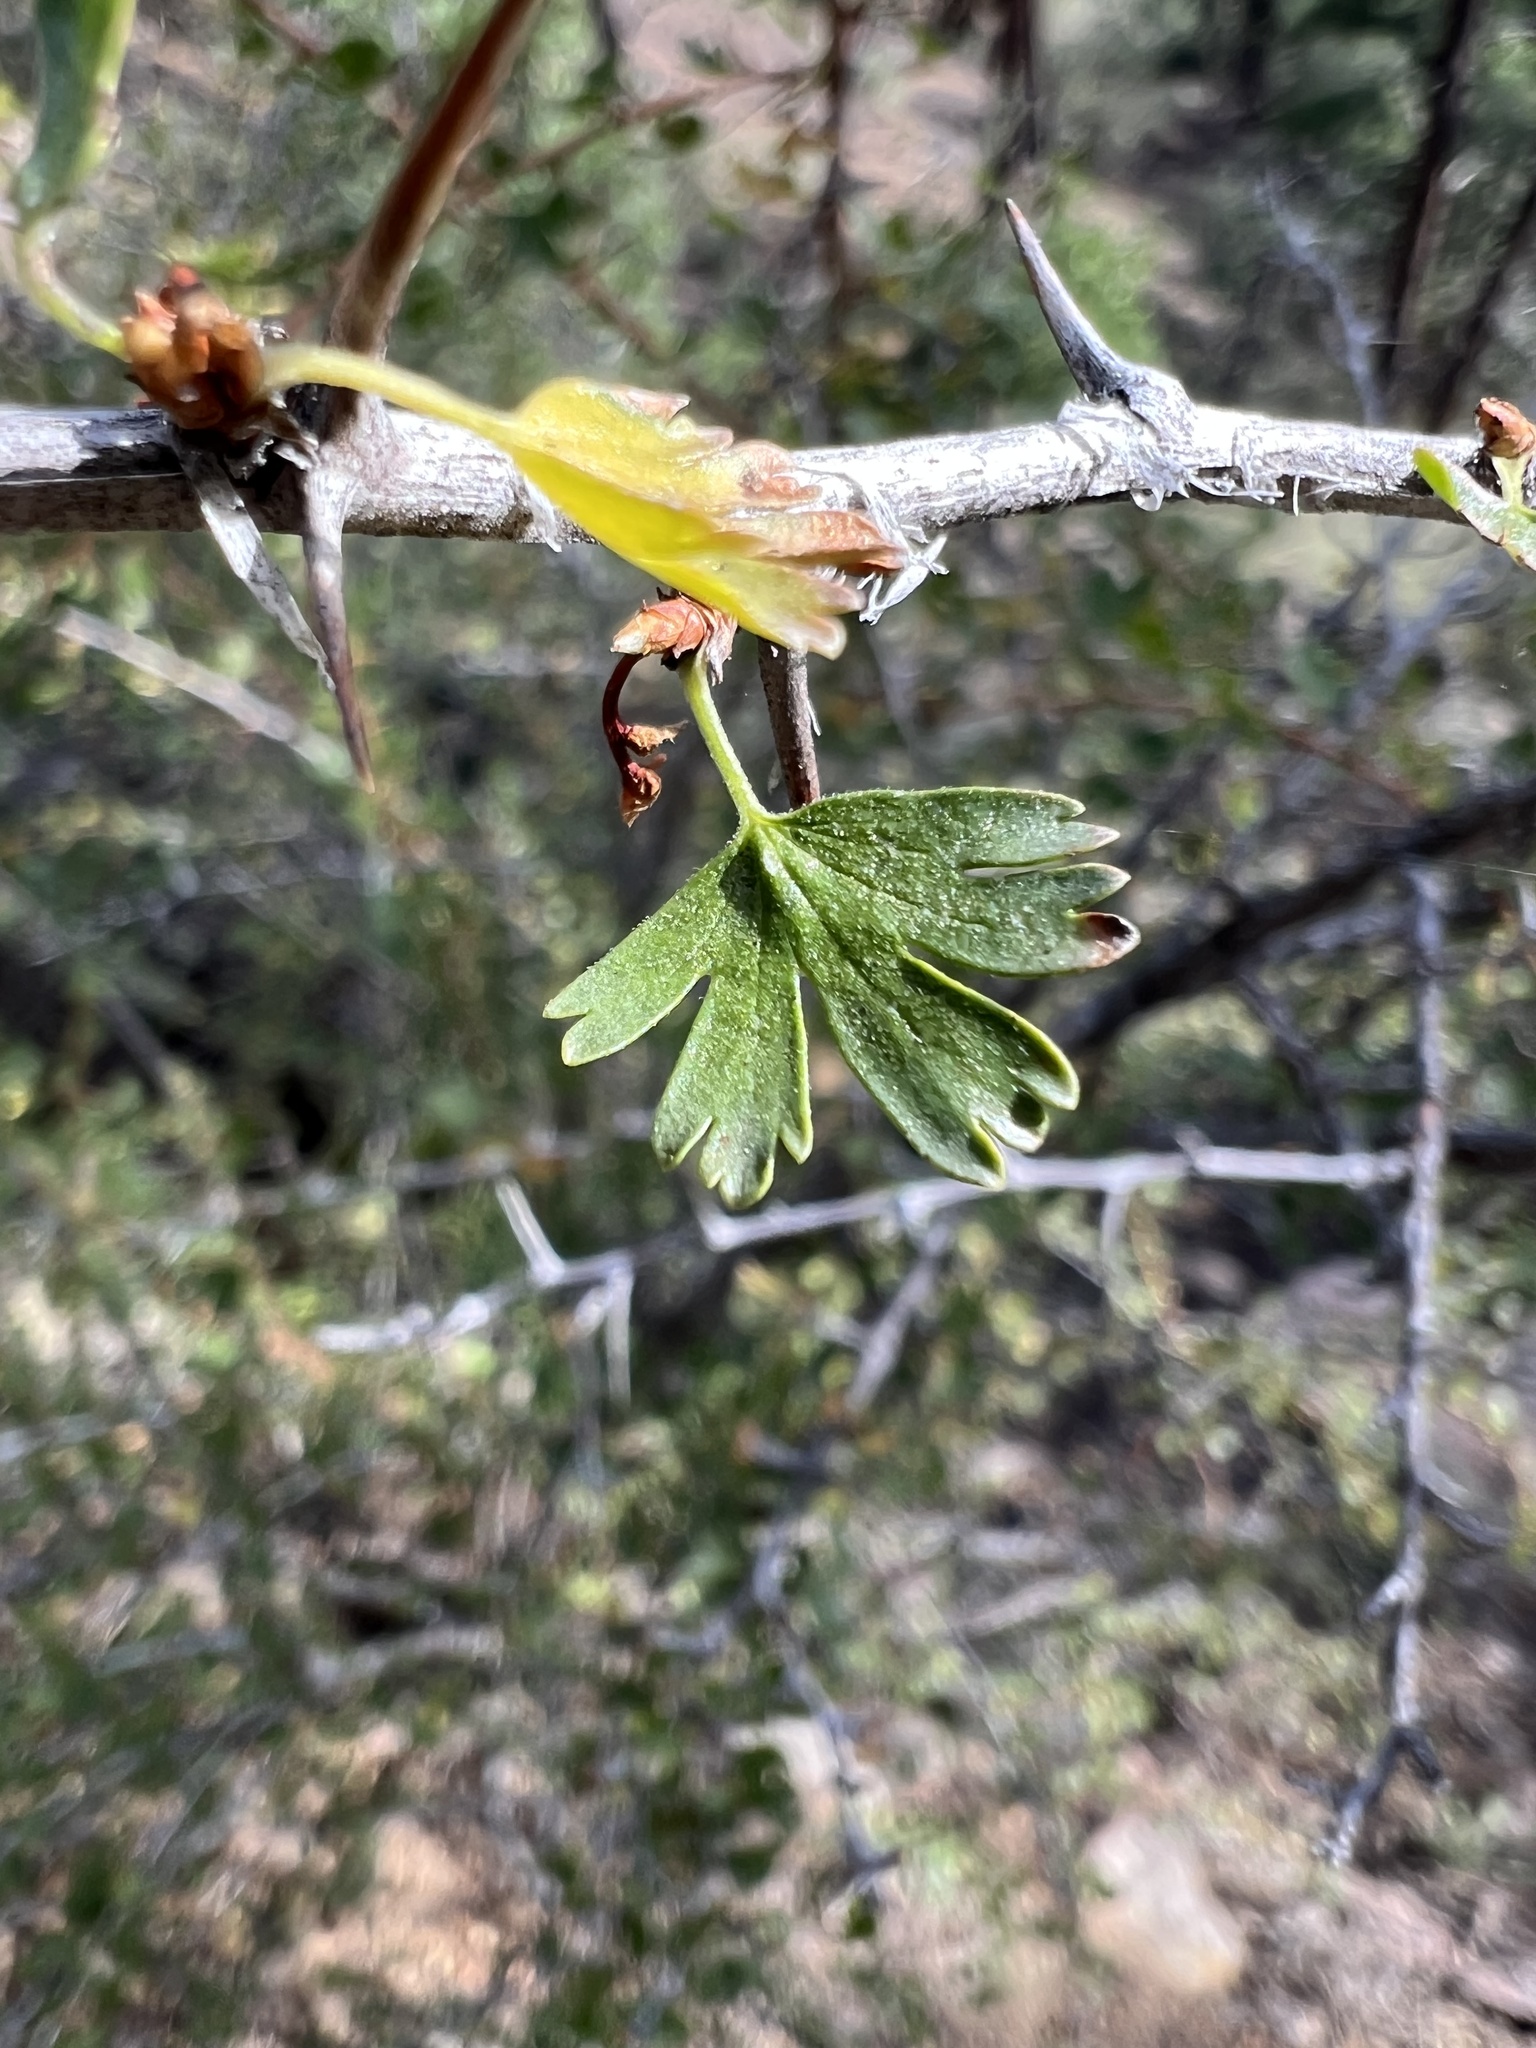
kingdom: Plantae
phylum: Tracheophyta
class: Magnoliopsida
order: Saxifragales
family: Grossulariaceae
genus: Ribes
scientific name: Ribes leptanthum
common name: Trumpet gooseberry
